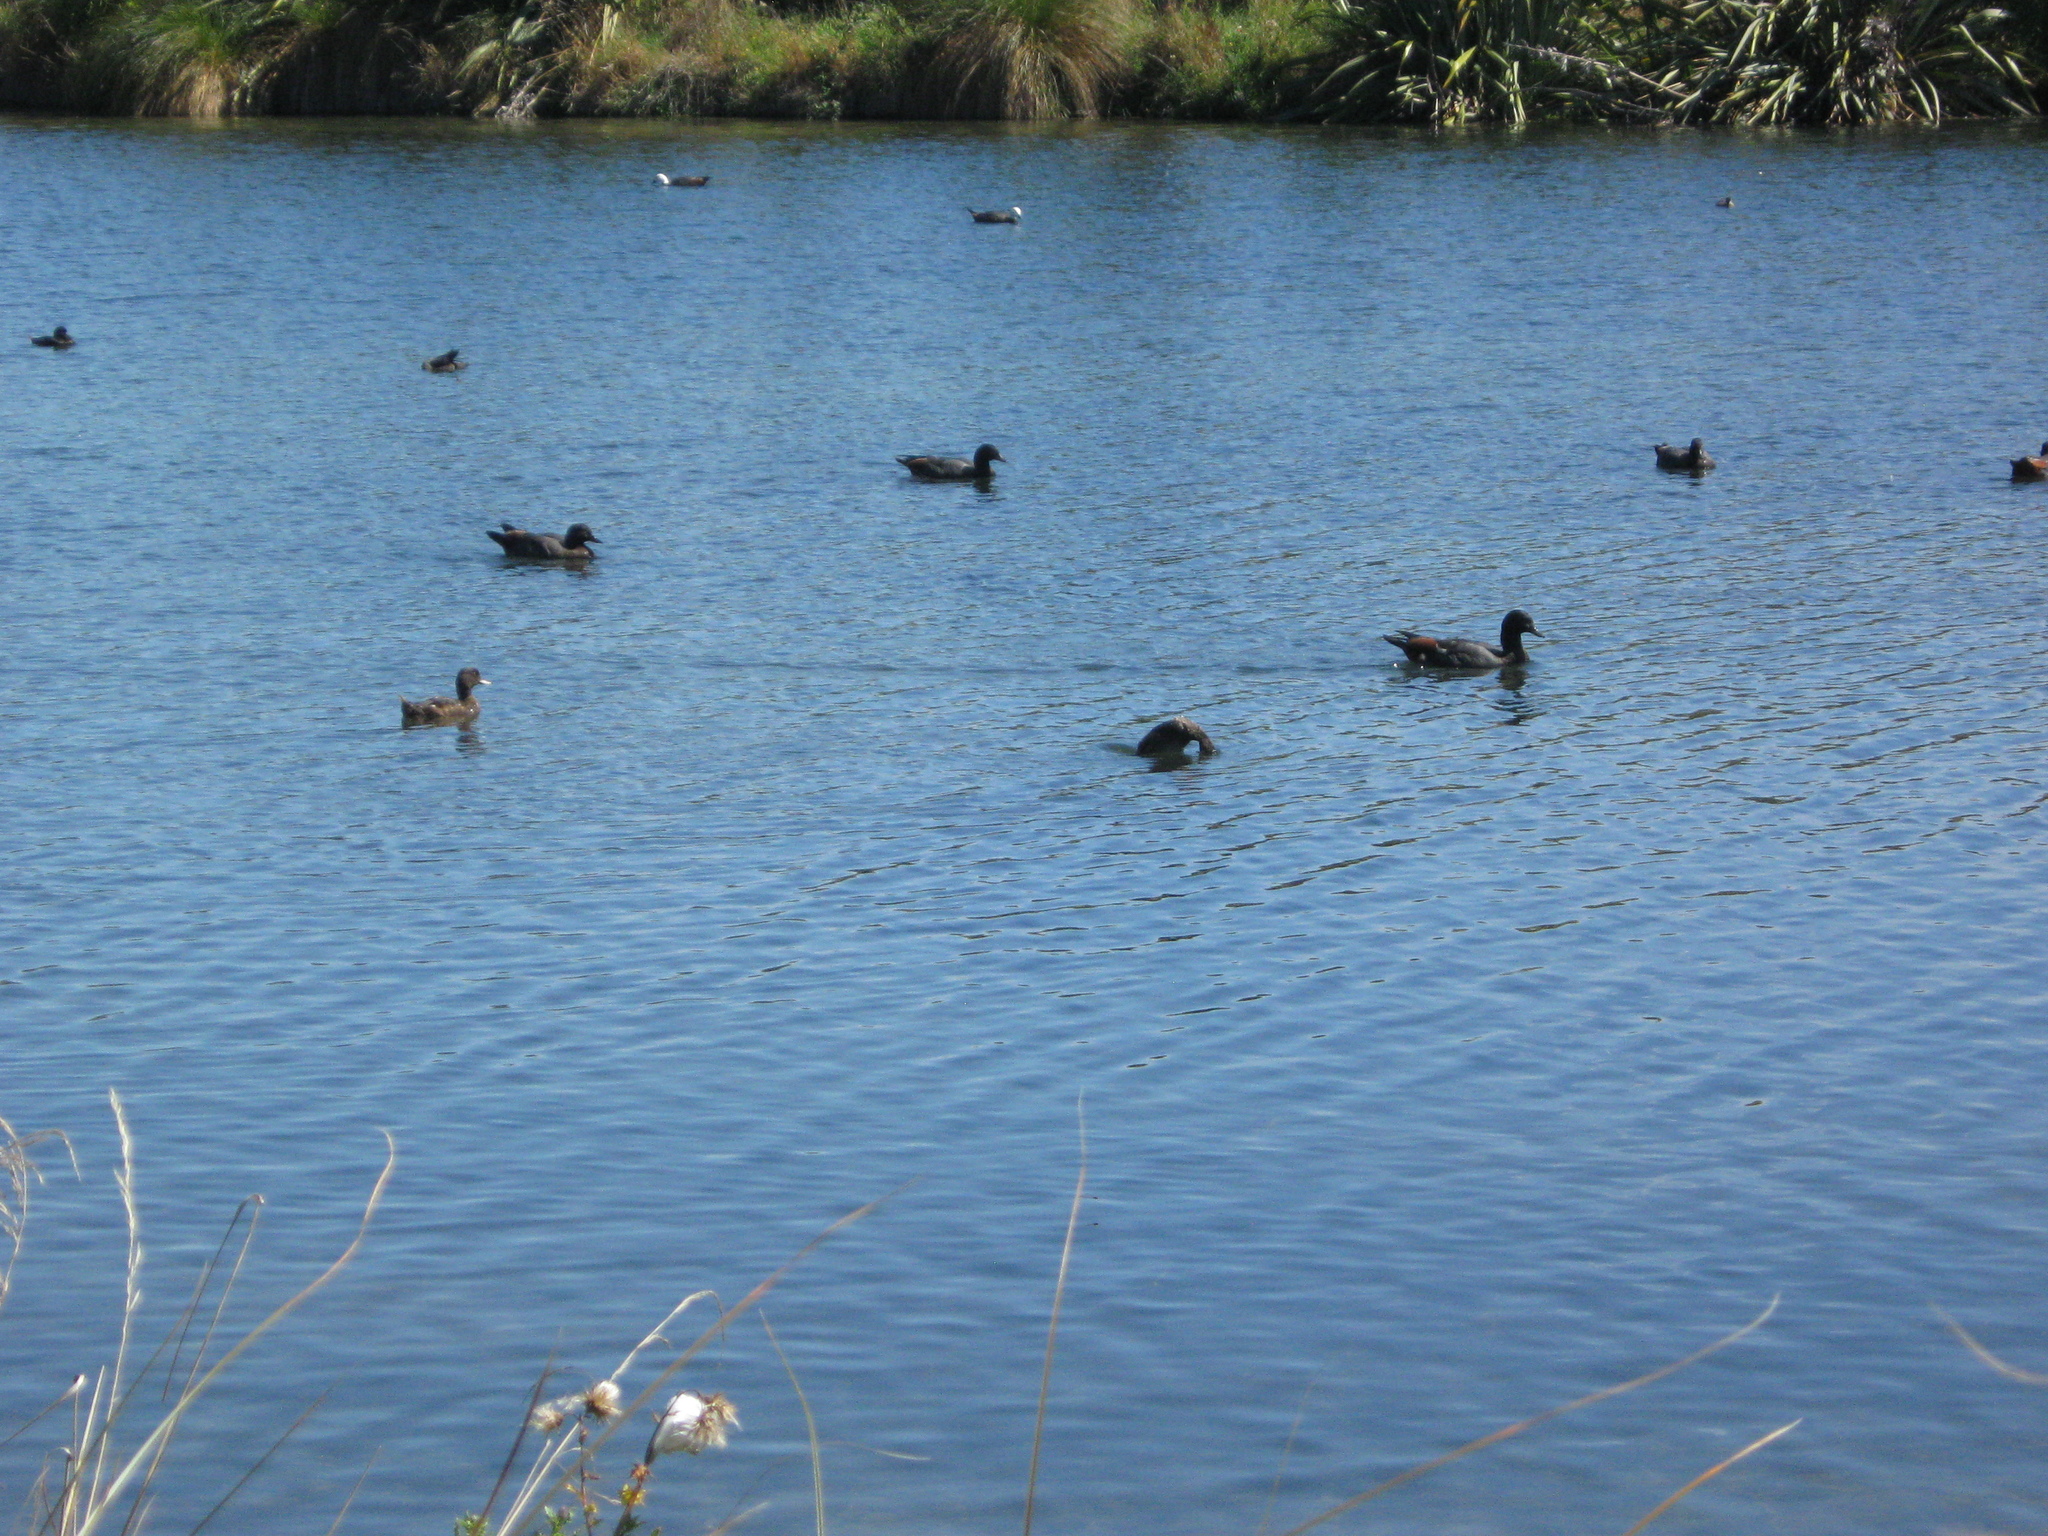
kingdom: Animalia
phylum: Chordata
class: Aves
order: Anseriformes
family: Anatidae
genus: Aythya
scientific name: Aythya novaeseelandiae
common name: New zealand scaup
